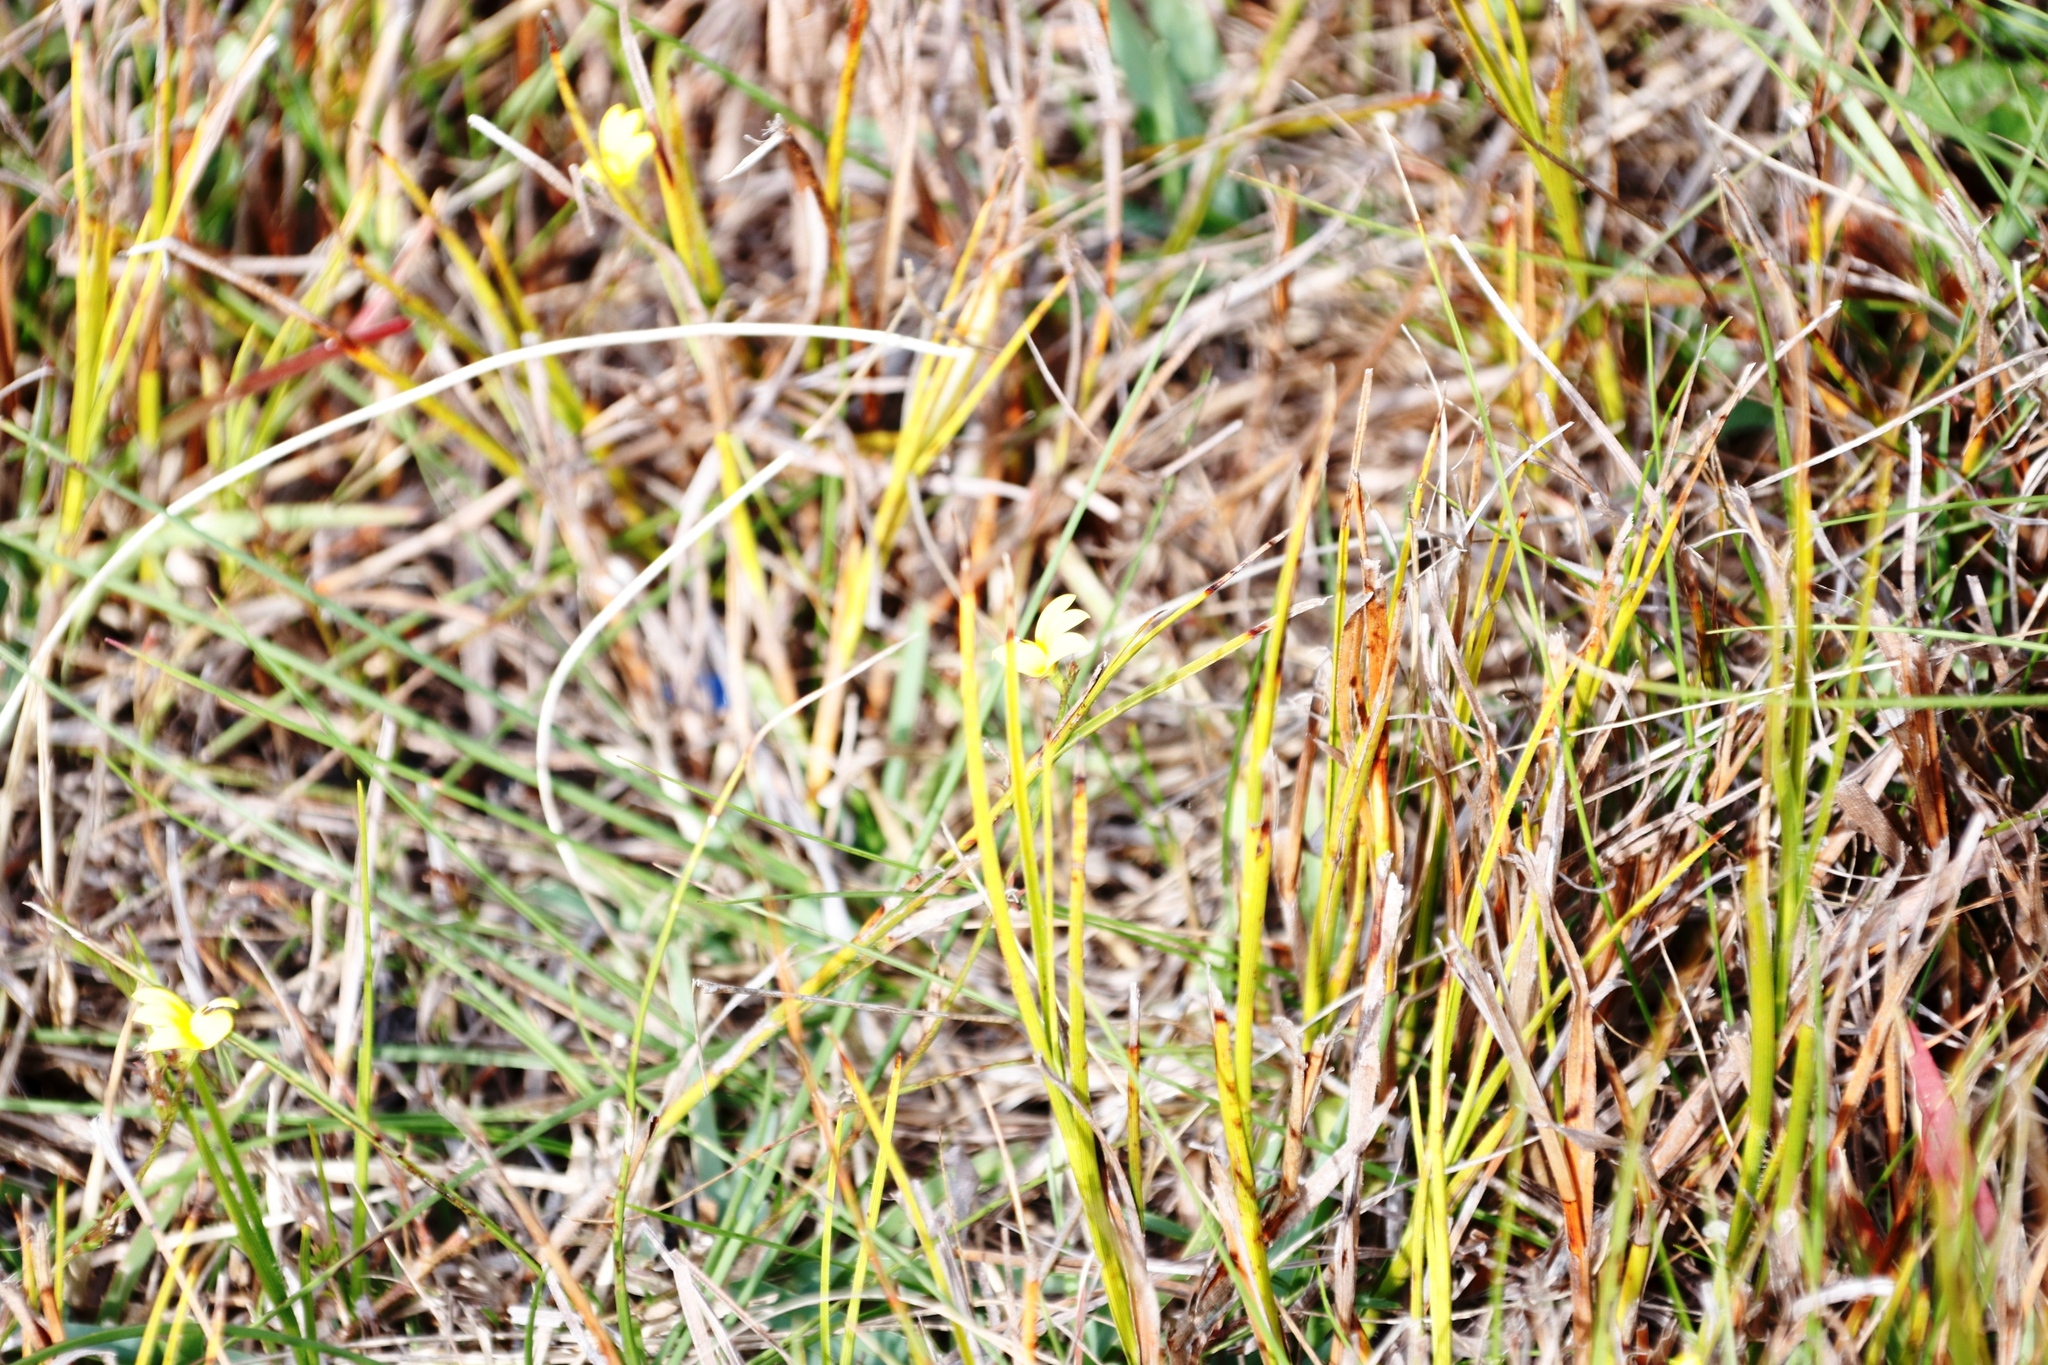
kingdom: Plantae
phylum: Tracheophyta
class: Magnoliopsida
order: Asterales
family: Campanulaceae
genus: Monopsis
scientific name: Monopsis lutea
